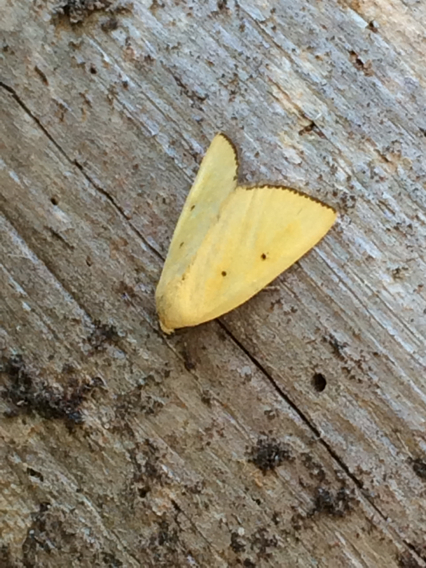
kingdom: Animalia
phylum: Arthropoda
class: Insecta
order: Lepidoptera
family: Noctuidae
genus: Marimatha
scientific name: Marimatha nigrofimbria
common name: Black-bordered lemon moth
